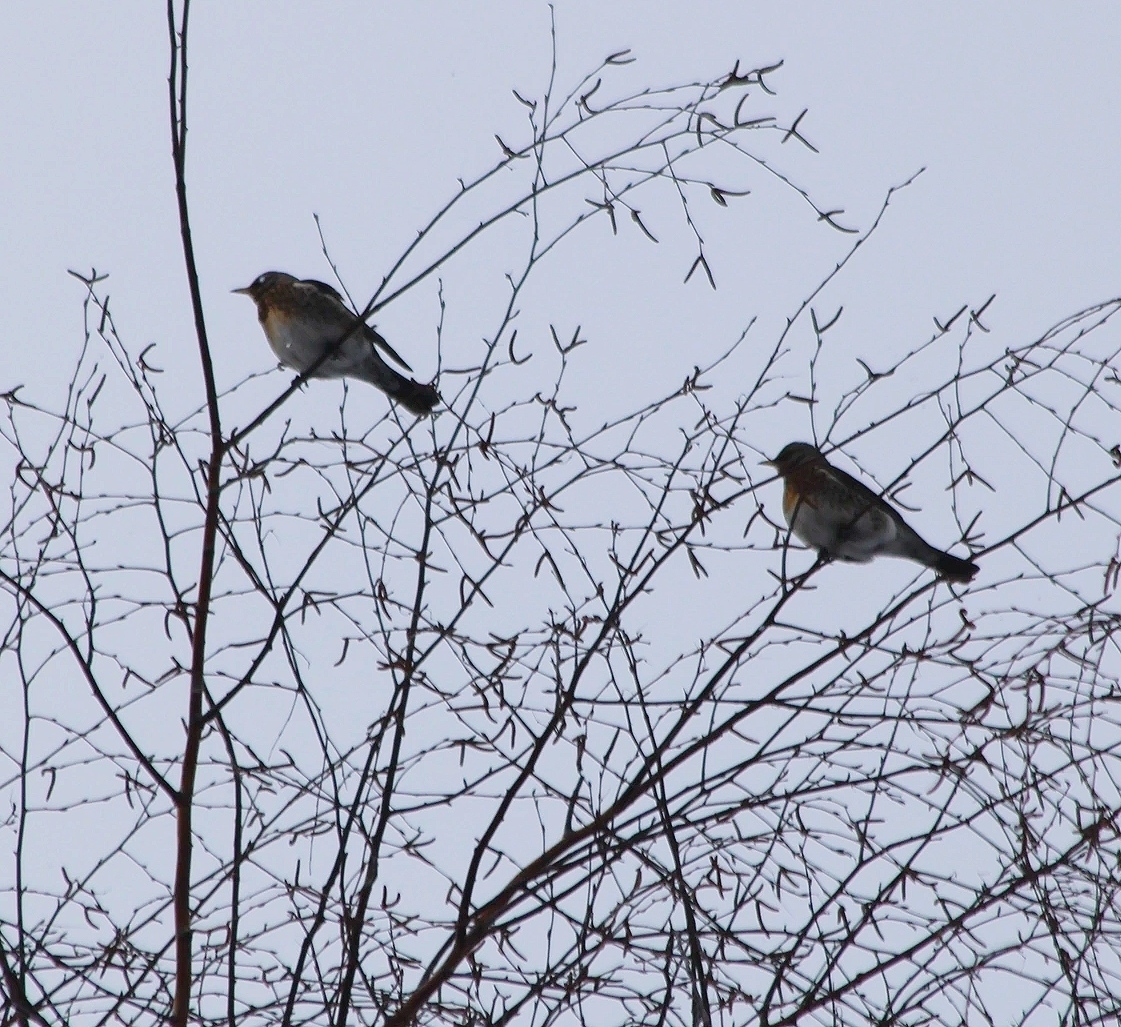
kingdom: Animalia
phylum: Chordata
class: Aves
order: Passeriformes
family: Turdidae
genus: Turdus
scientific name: Turdus pilaris
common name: Fieldfare
